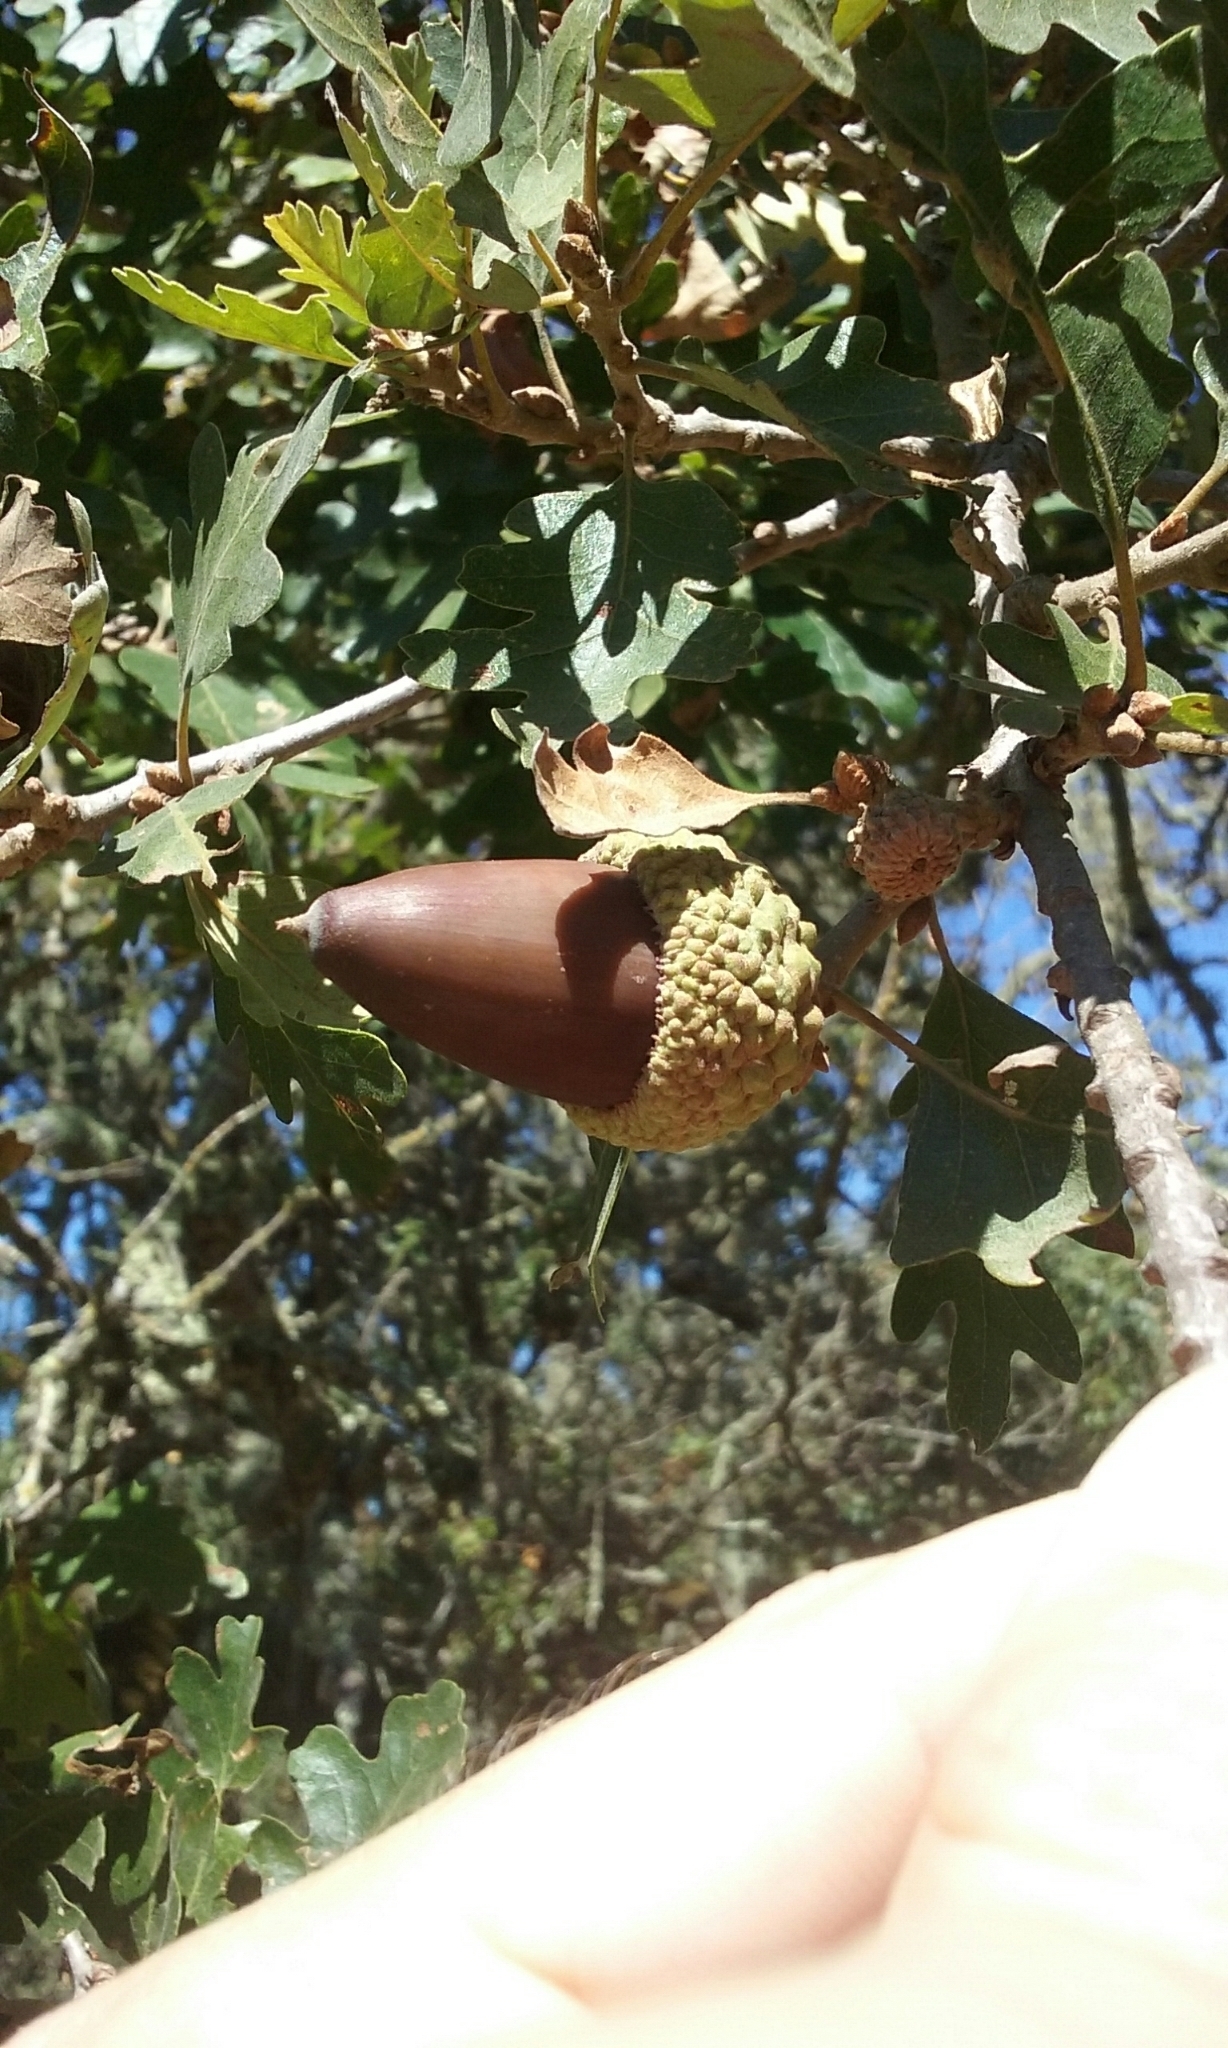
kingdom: Plantae
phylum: Tracheophyta
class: Magnoliopsida
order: Fagales
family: Fagaceae
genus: Quercus
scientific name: Quercus lobata
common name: Valley oak
